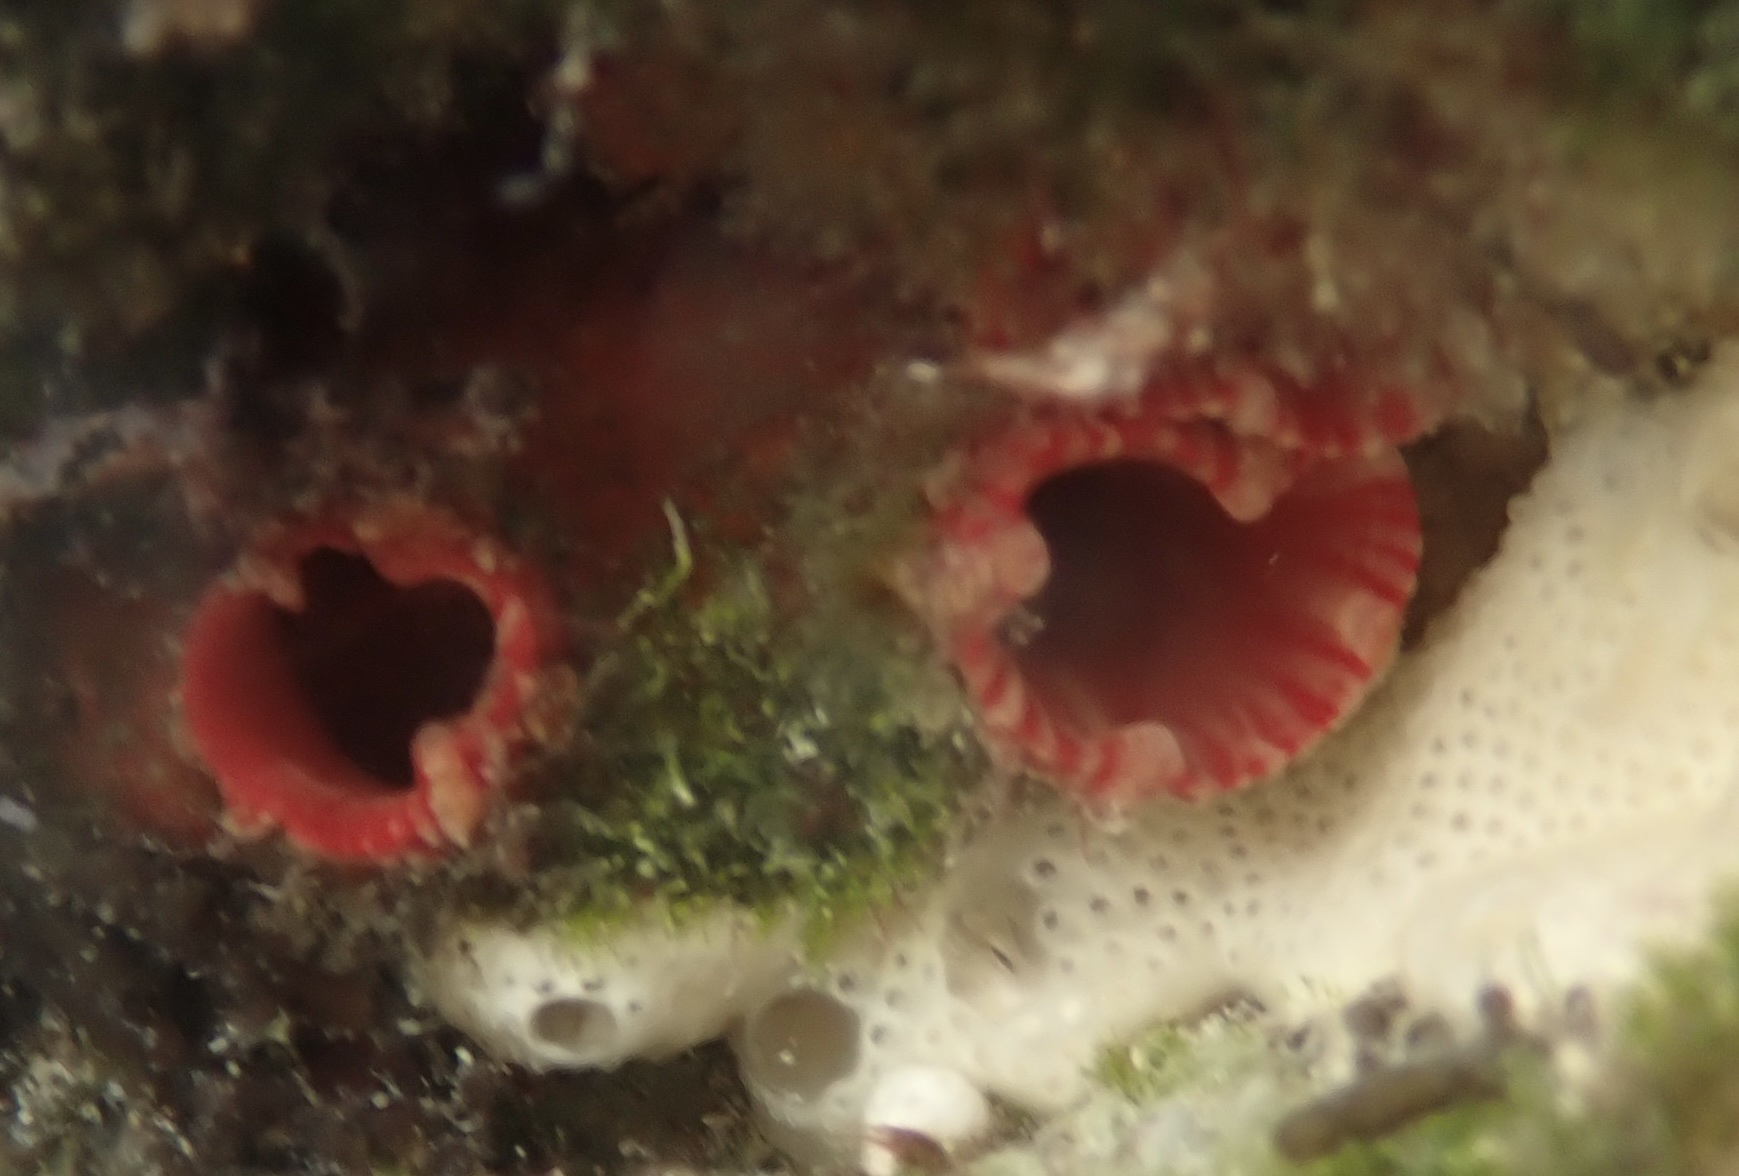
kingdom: Animalia
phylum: Chordata
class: Ascidiacea
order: Stolidobranchia
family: Pyuridae
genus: Pyura
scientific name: Pyura torpida
